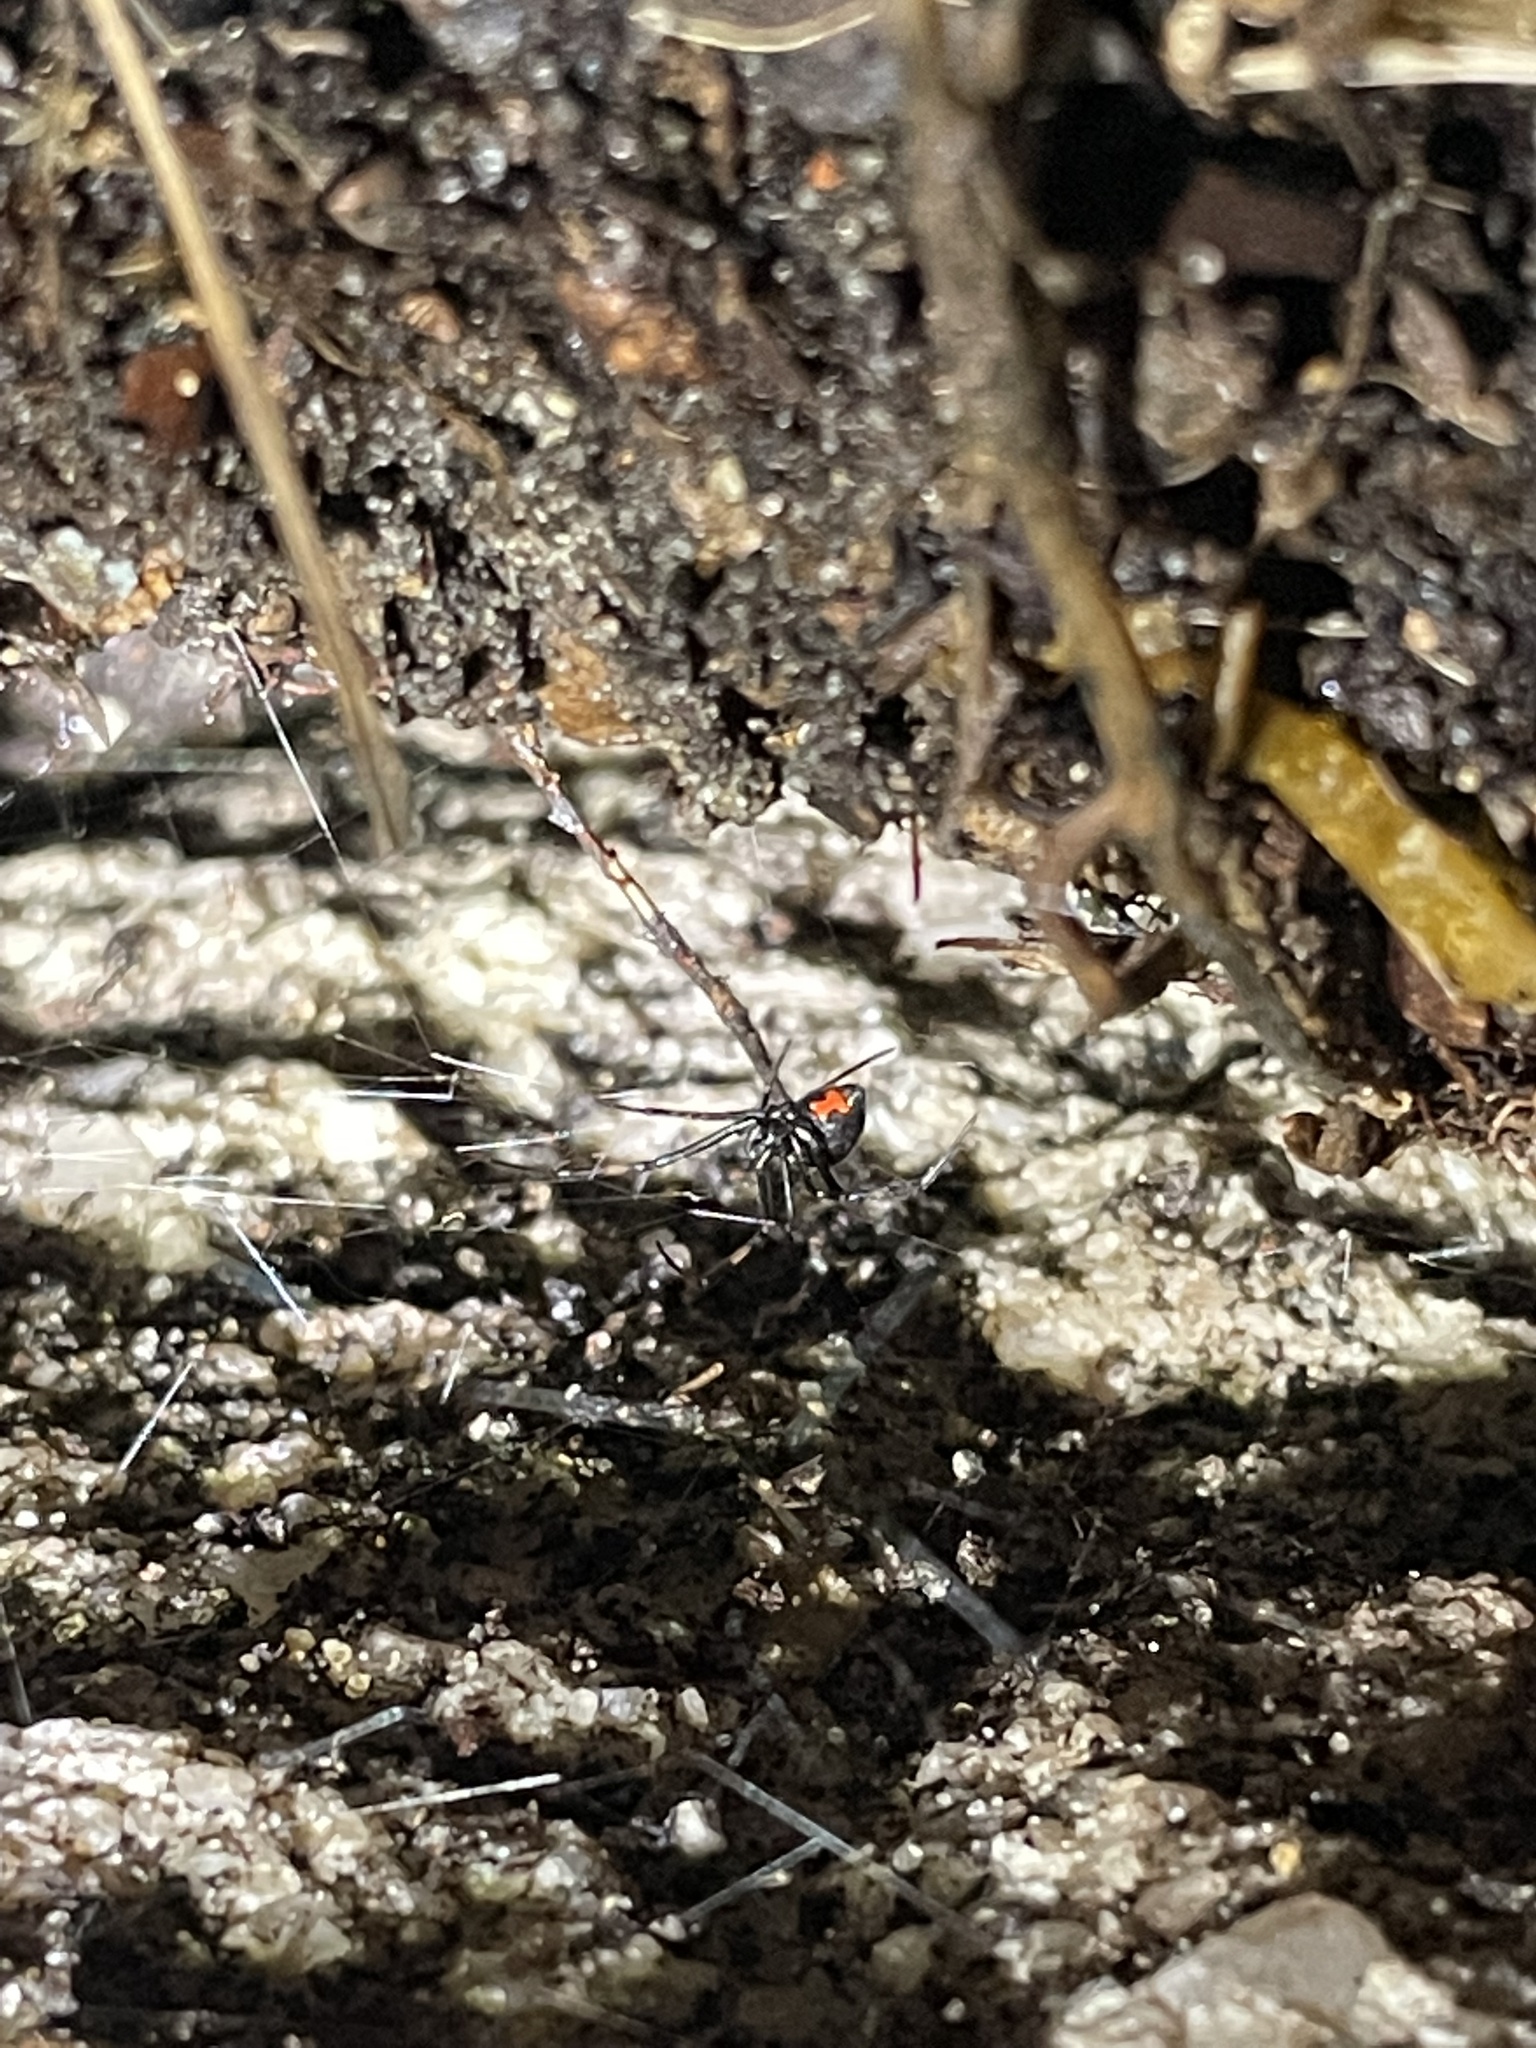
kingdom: Animalia
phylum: Arthropoda
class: Arachnida
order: Araneae
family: Theridiidae
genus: Latrodectus
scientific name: Latrodectus mactans
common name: Cobweb spiders
